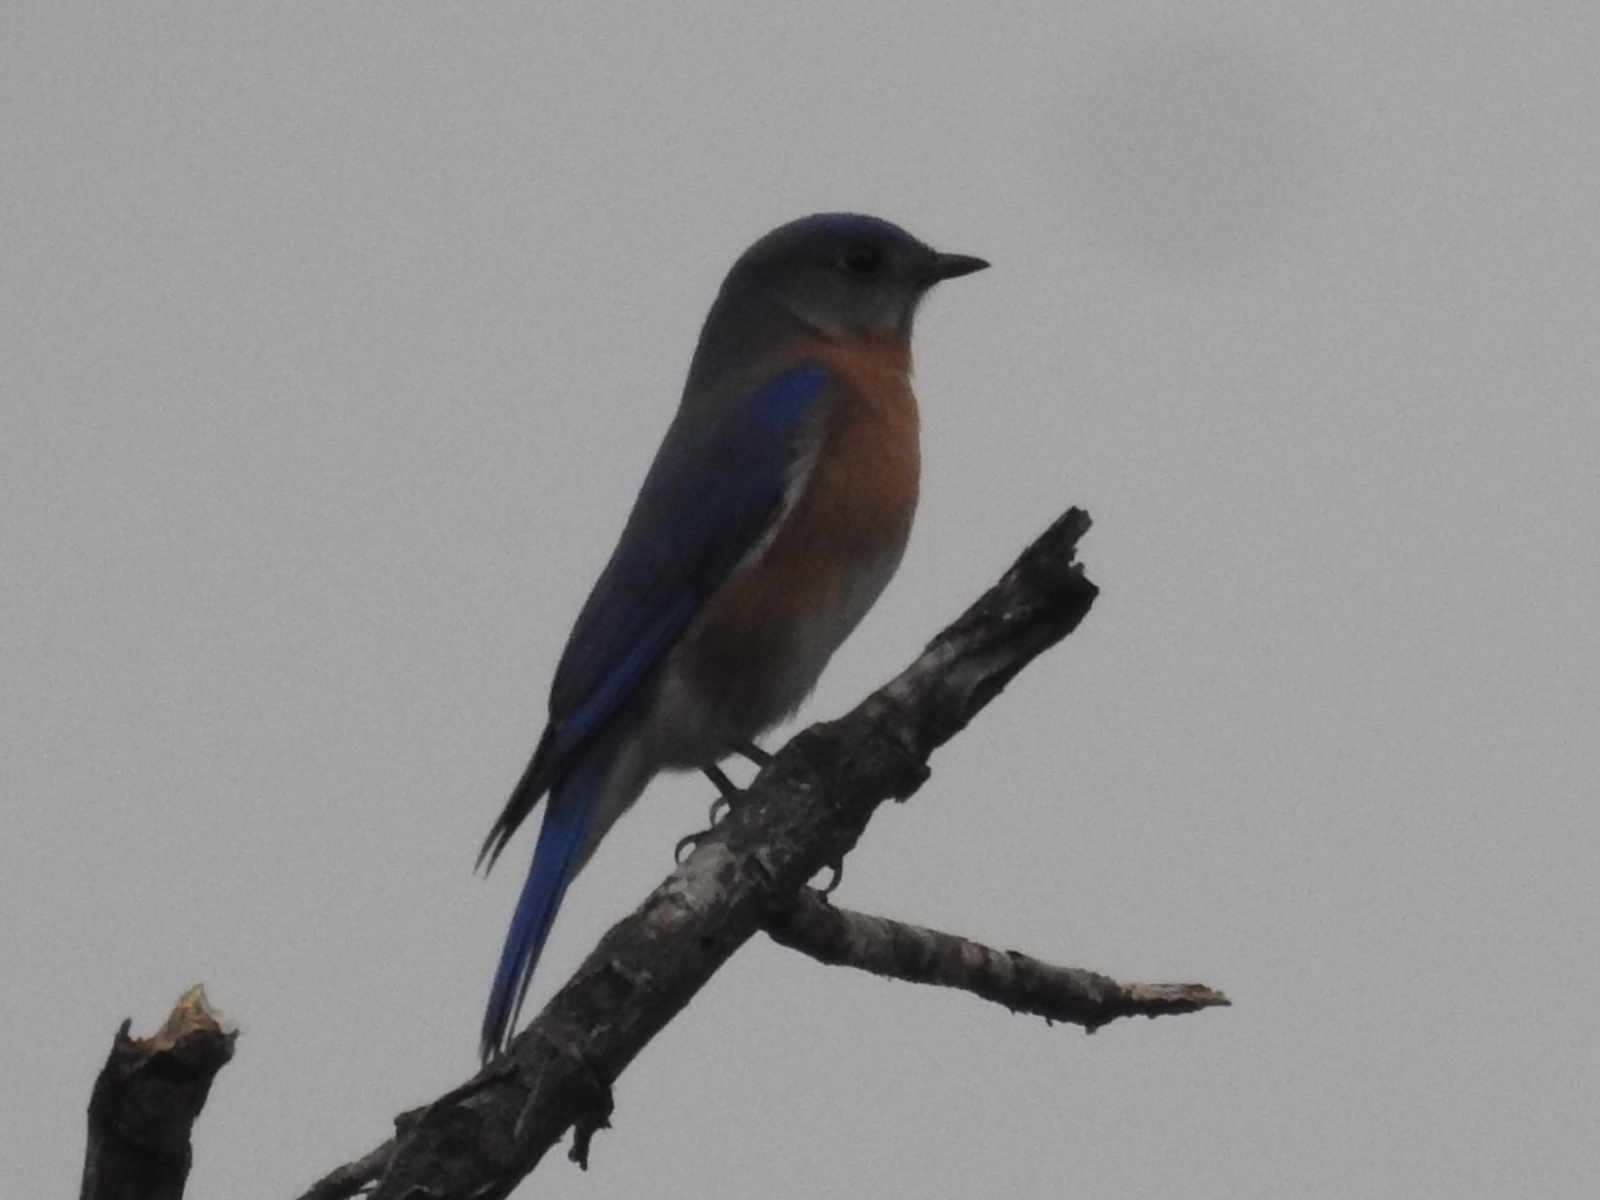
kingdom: Animalia
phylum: Chordata
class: Aves
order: Passeriformes
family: Turdidae
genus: Sialia
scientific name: Sialia sialis
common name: Eastern bluebird
